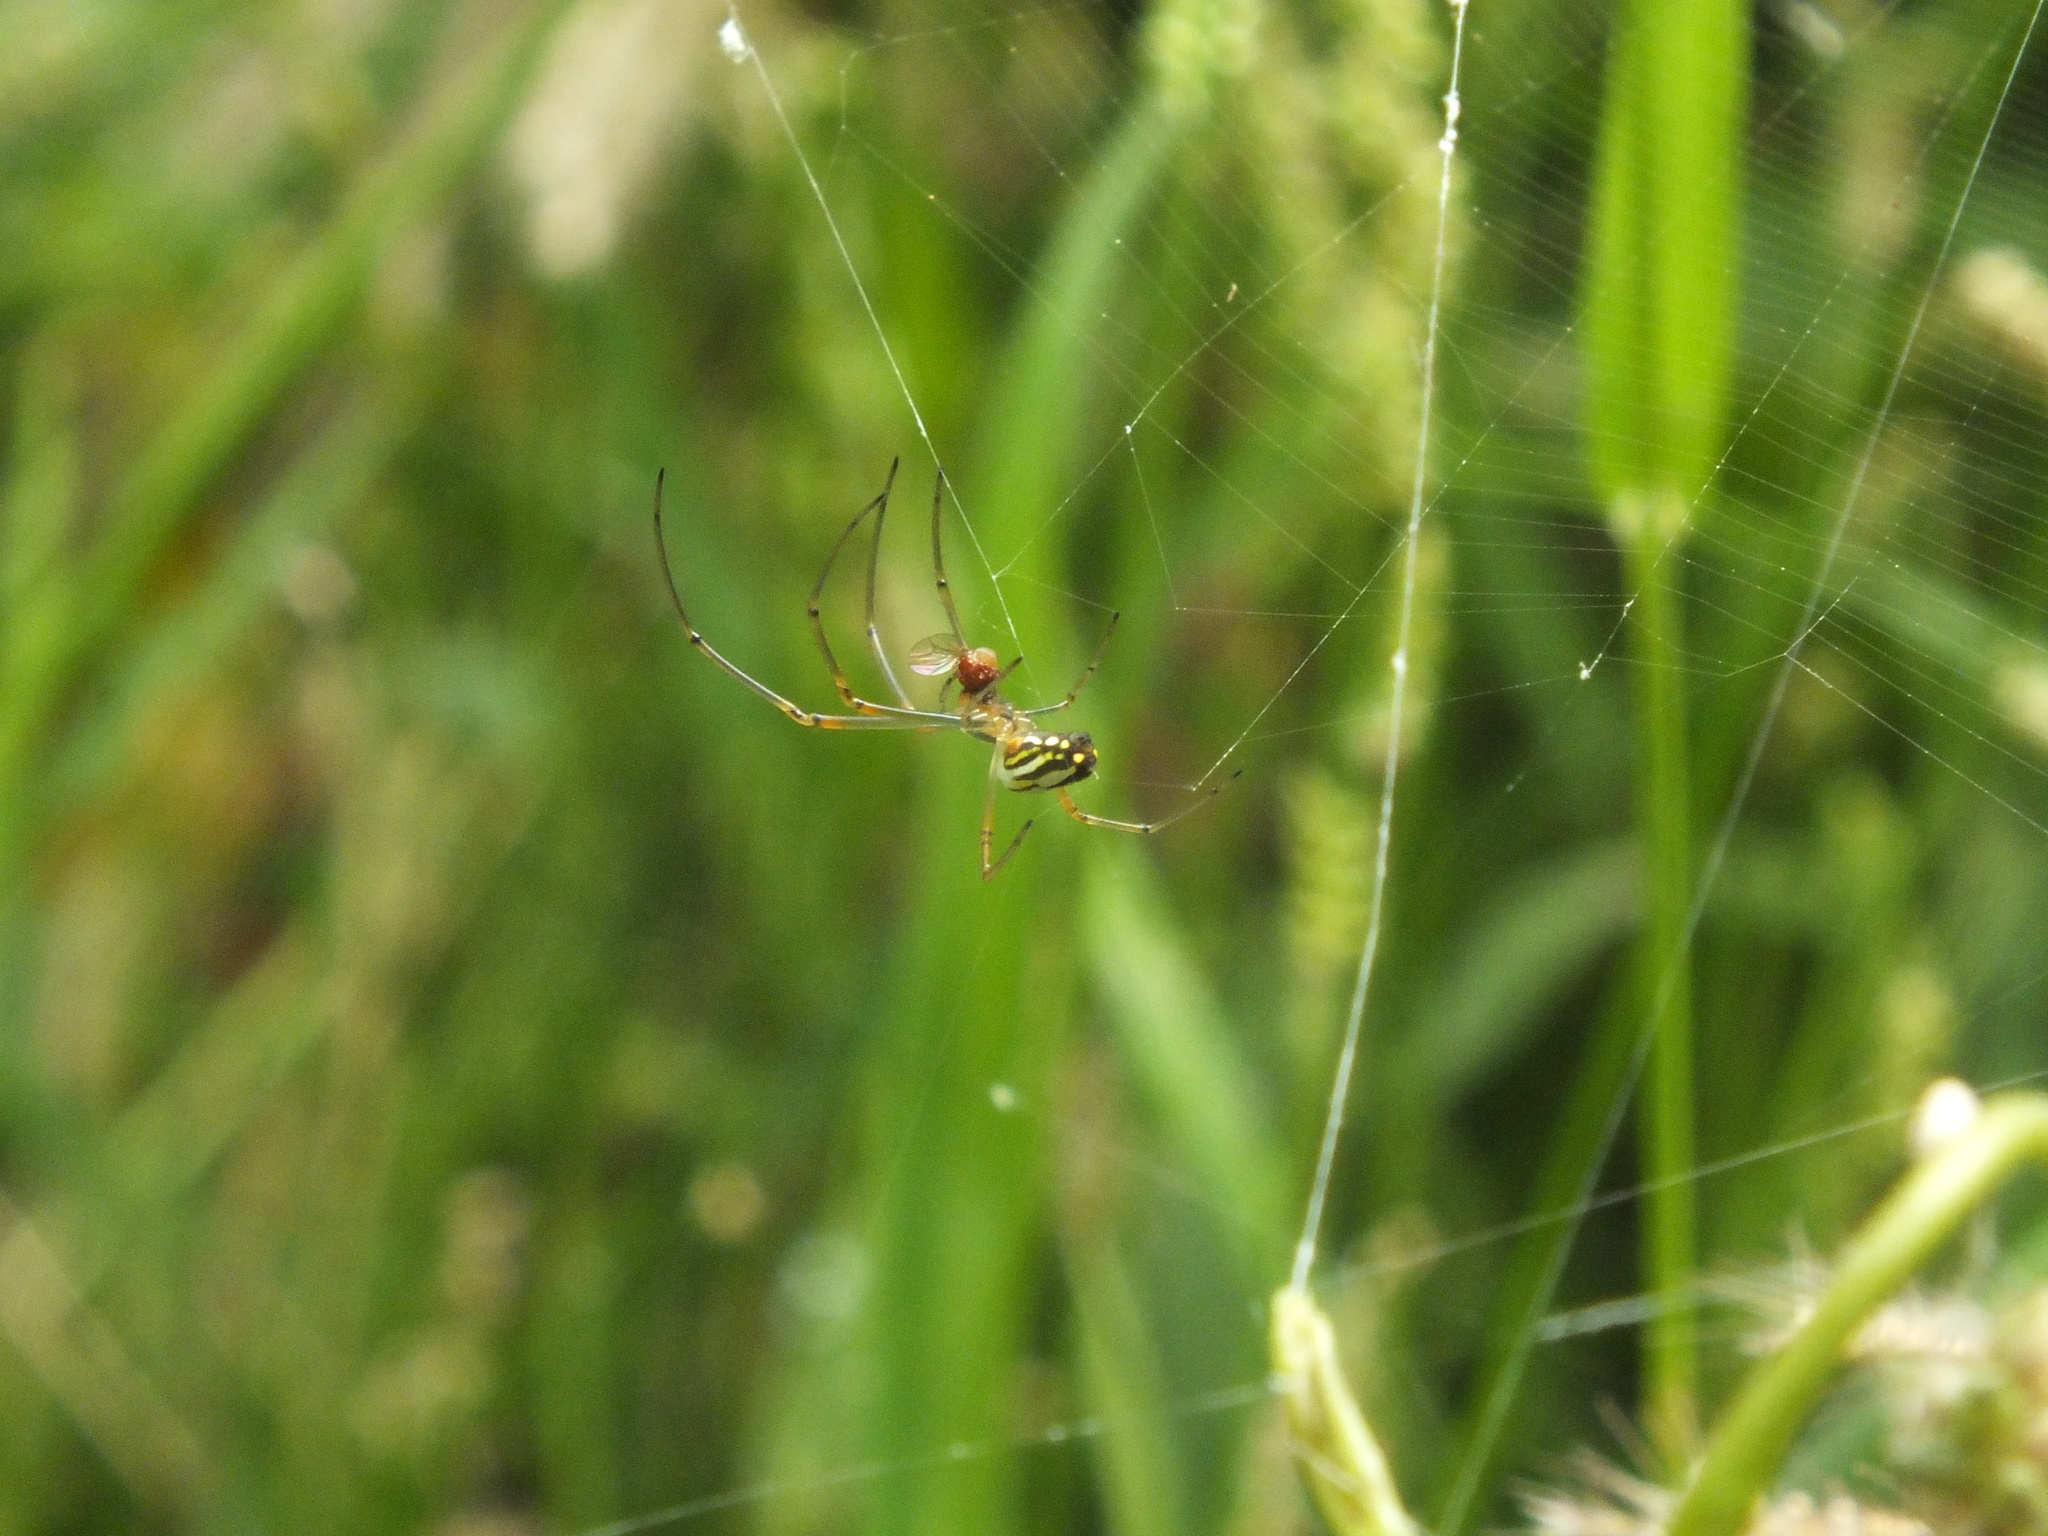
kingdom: Animalia
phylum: Arthropoda
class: Arachnida
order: Araneae
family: Tetragnathidae
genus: Leucauge
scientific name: Leucauge argyra
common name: Longjawed orb weavers
